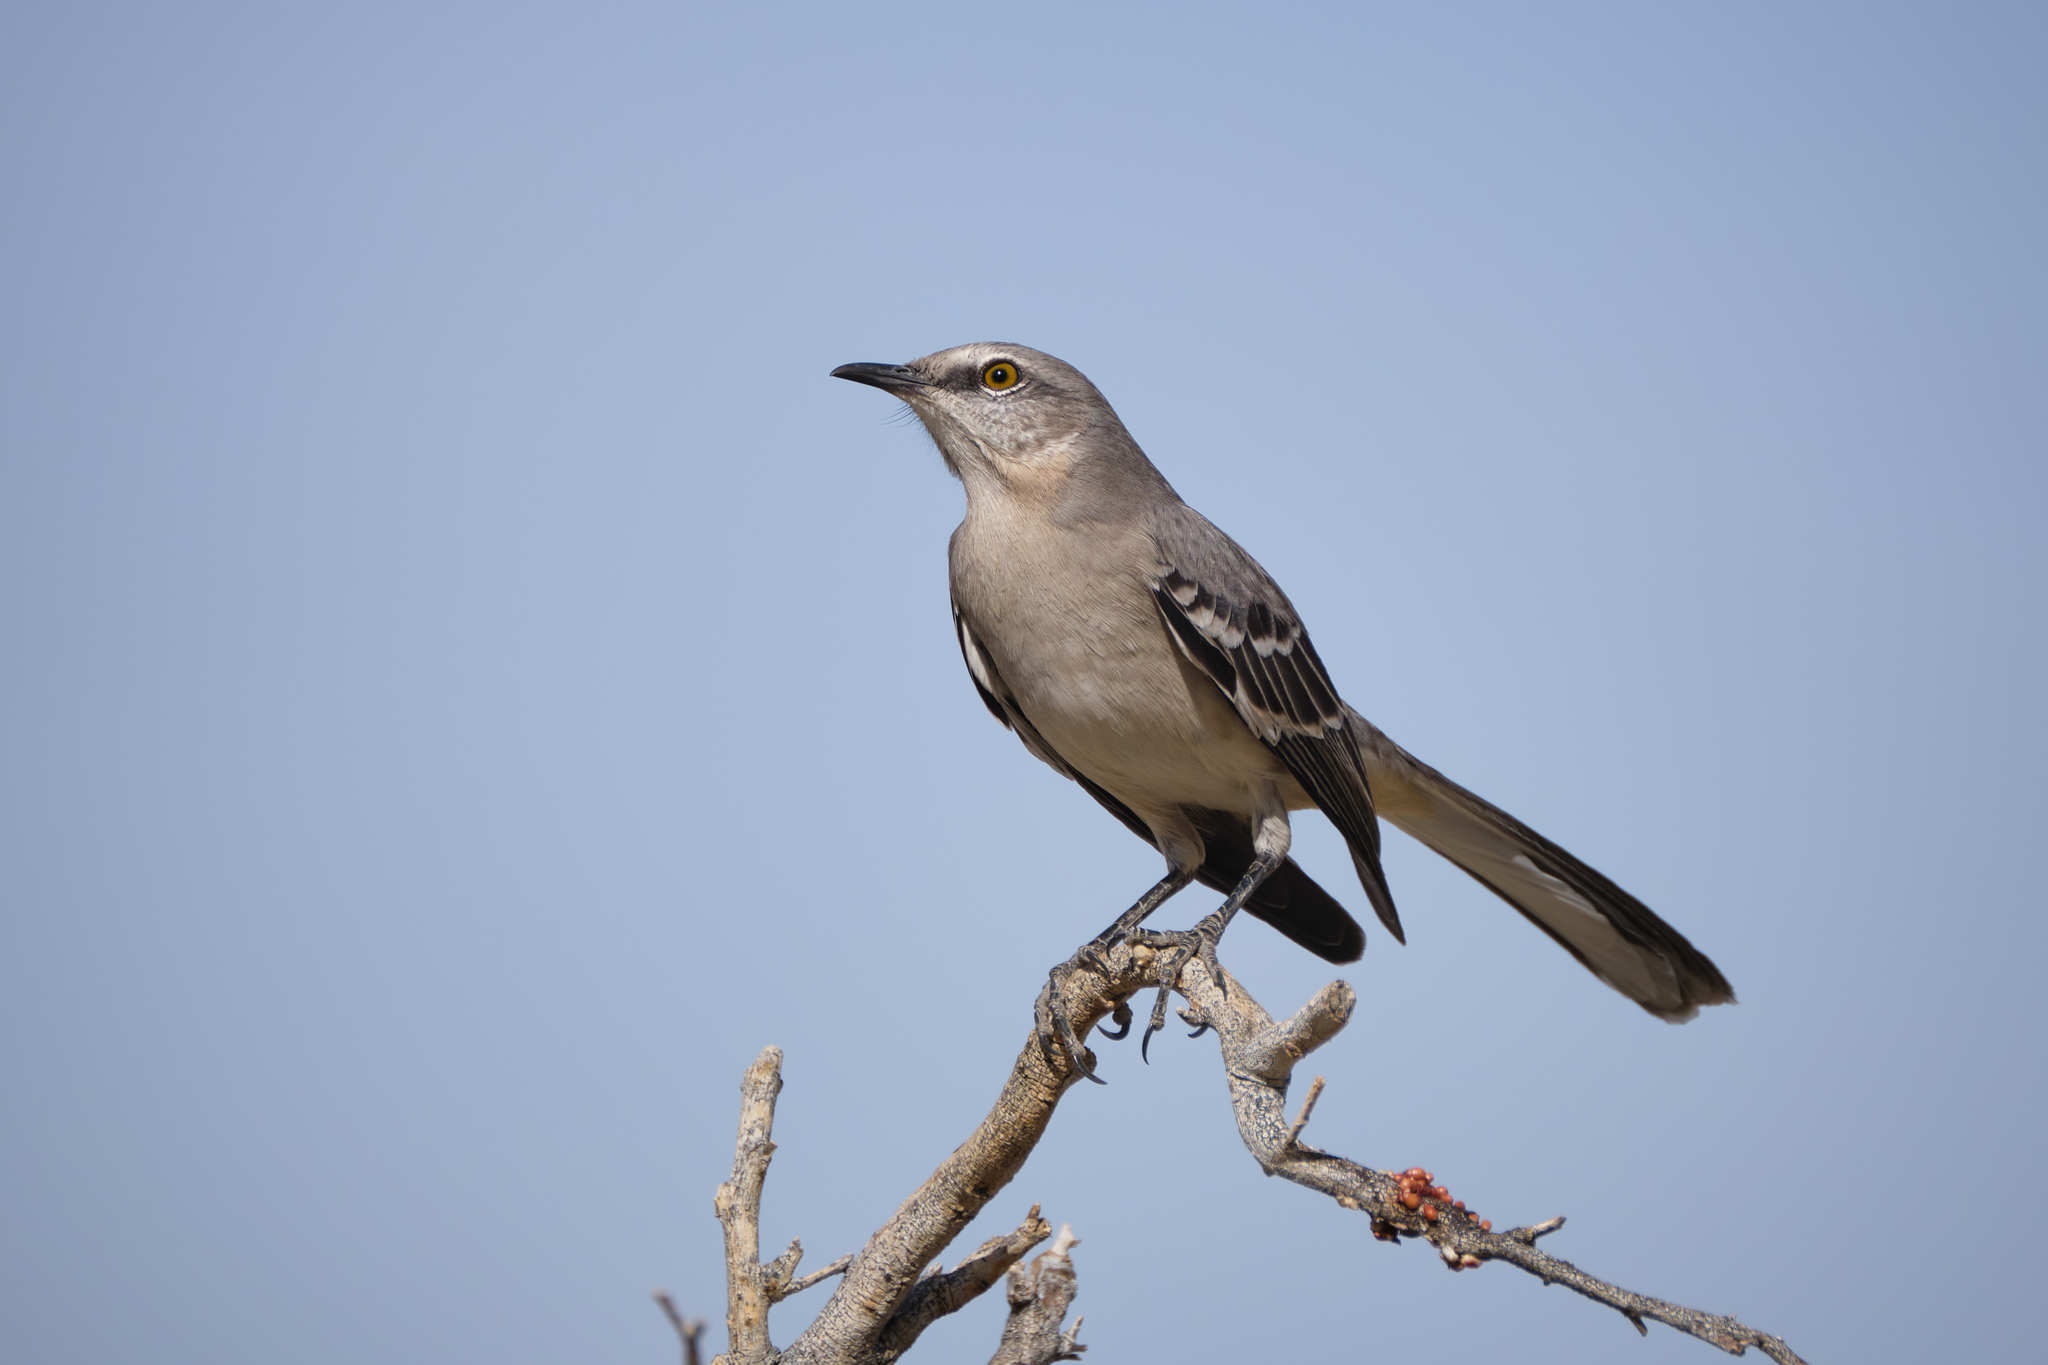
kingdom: Animalia
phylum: Chordata
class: Aves
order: Passeriformes
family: Mimidae
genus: Mimus
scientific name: Mimus polyglottos
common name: Northern mockingbird
